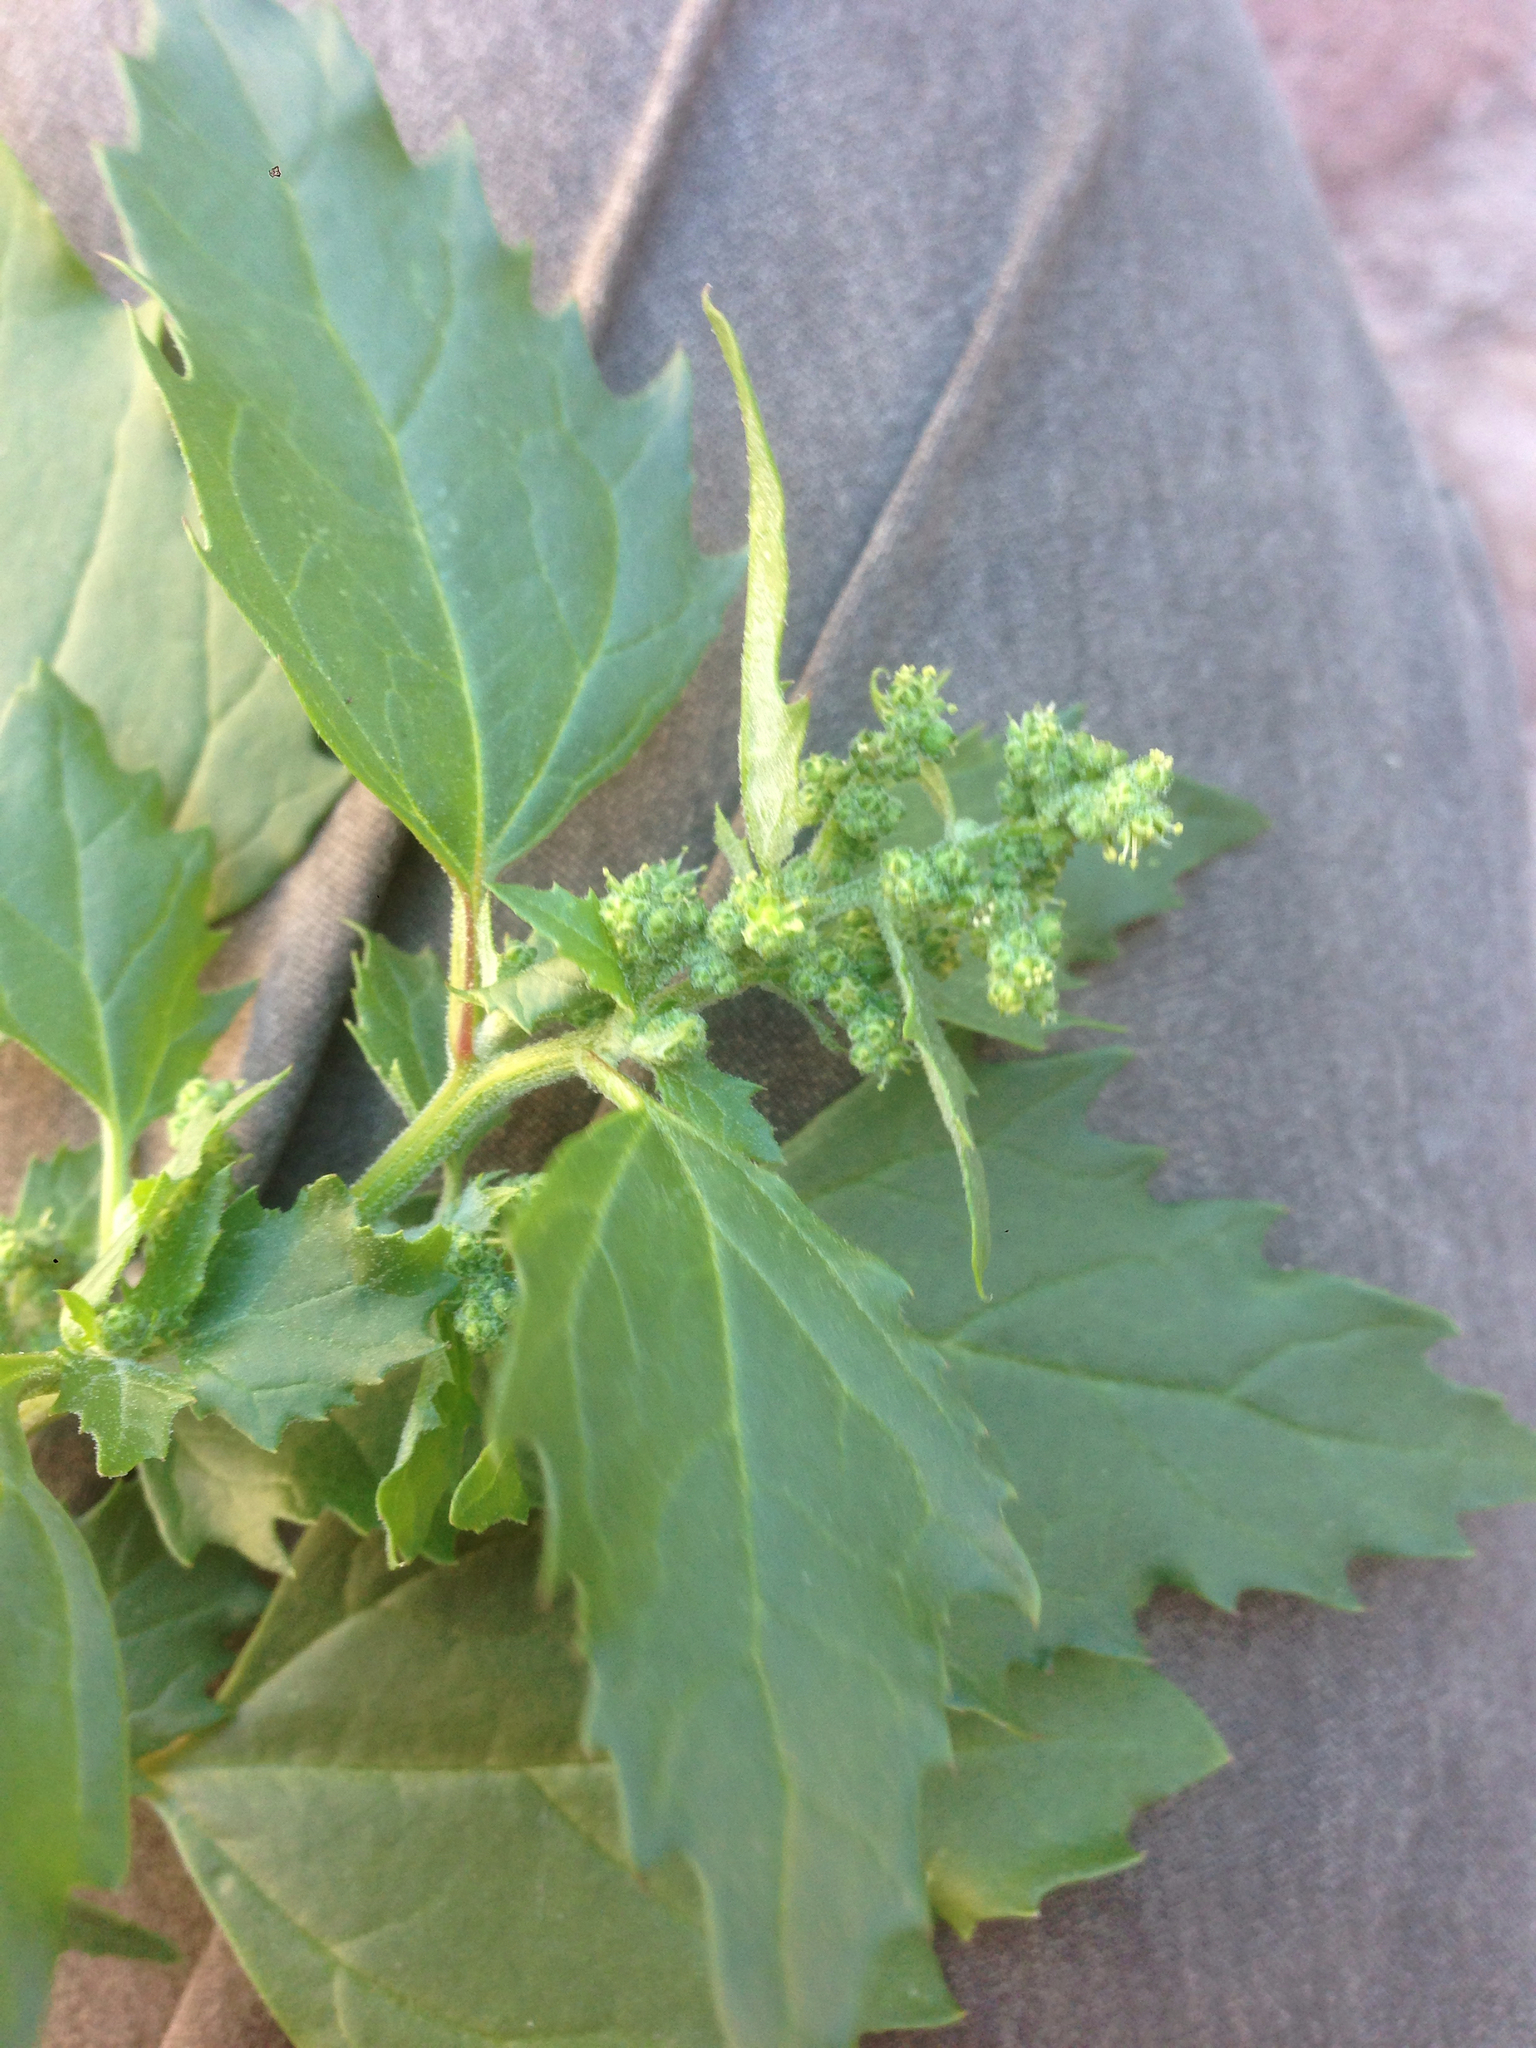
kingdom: Plantae
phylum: Tracheophyta
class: Magnoliopsida
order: Caryophyllales
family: Amaranthaceae
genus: Chenopodiastrum
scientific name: Chenopodiastrum murale
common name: Sowbane
